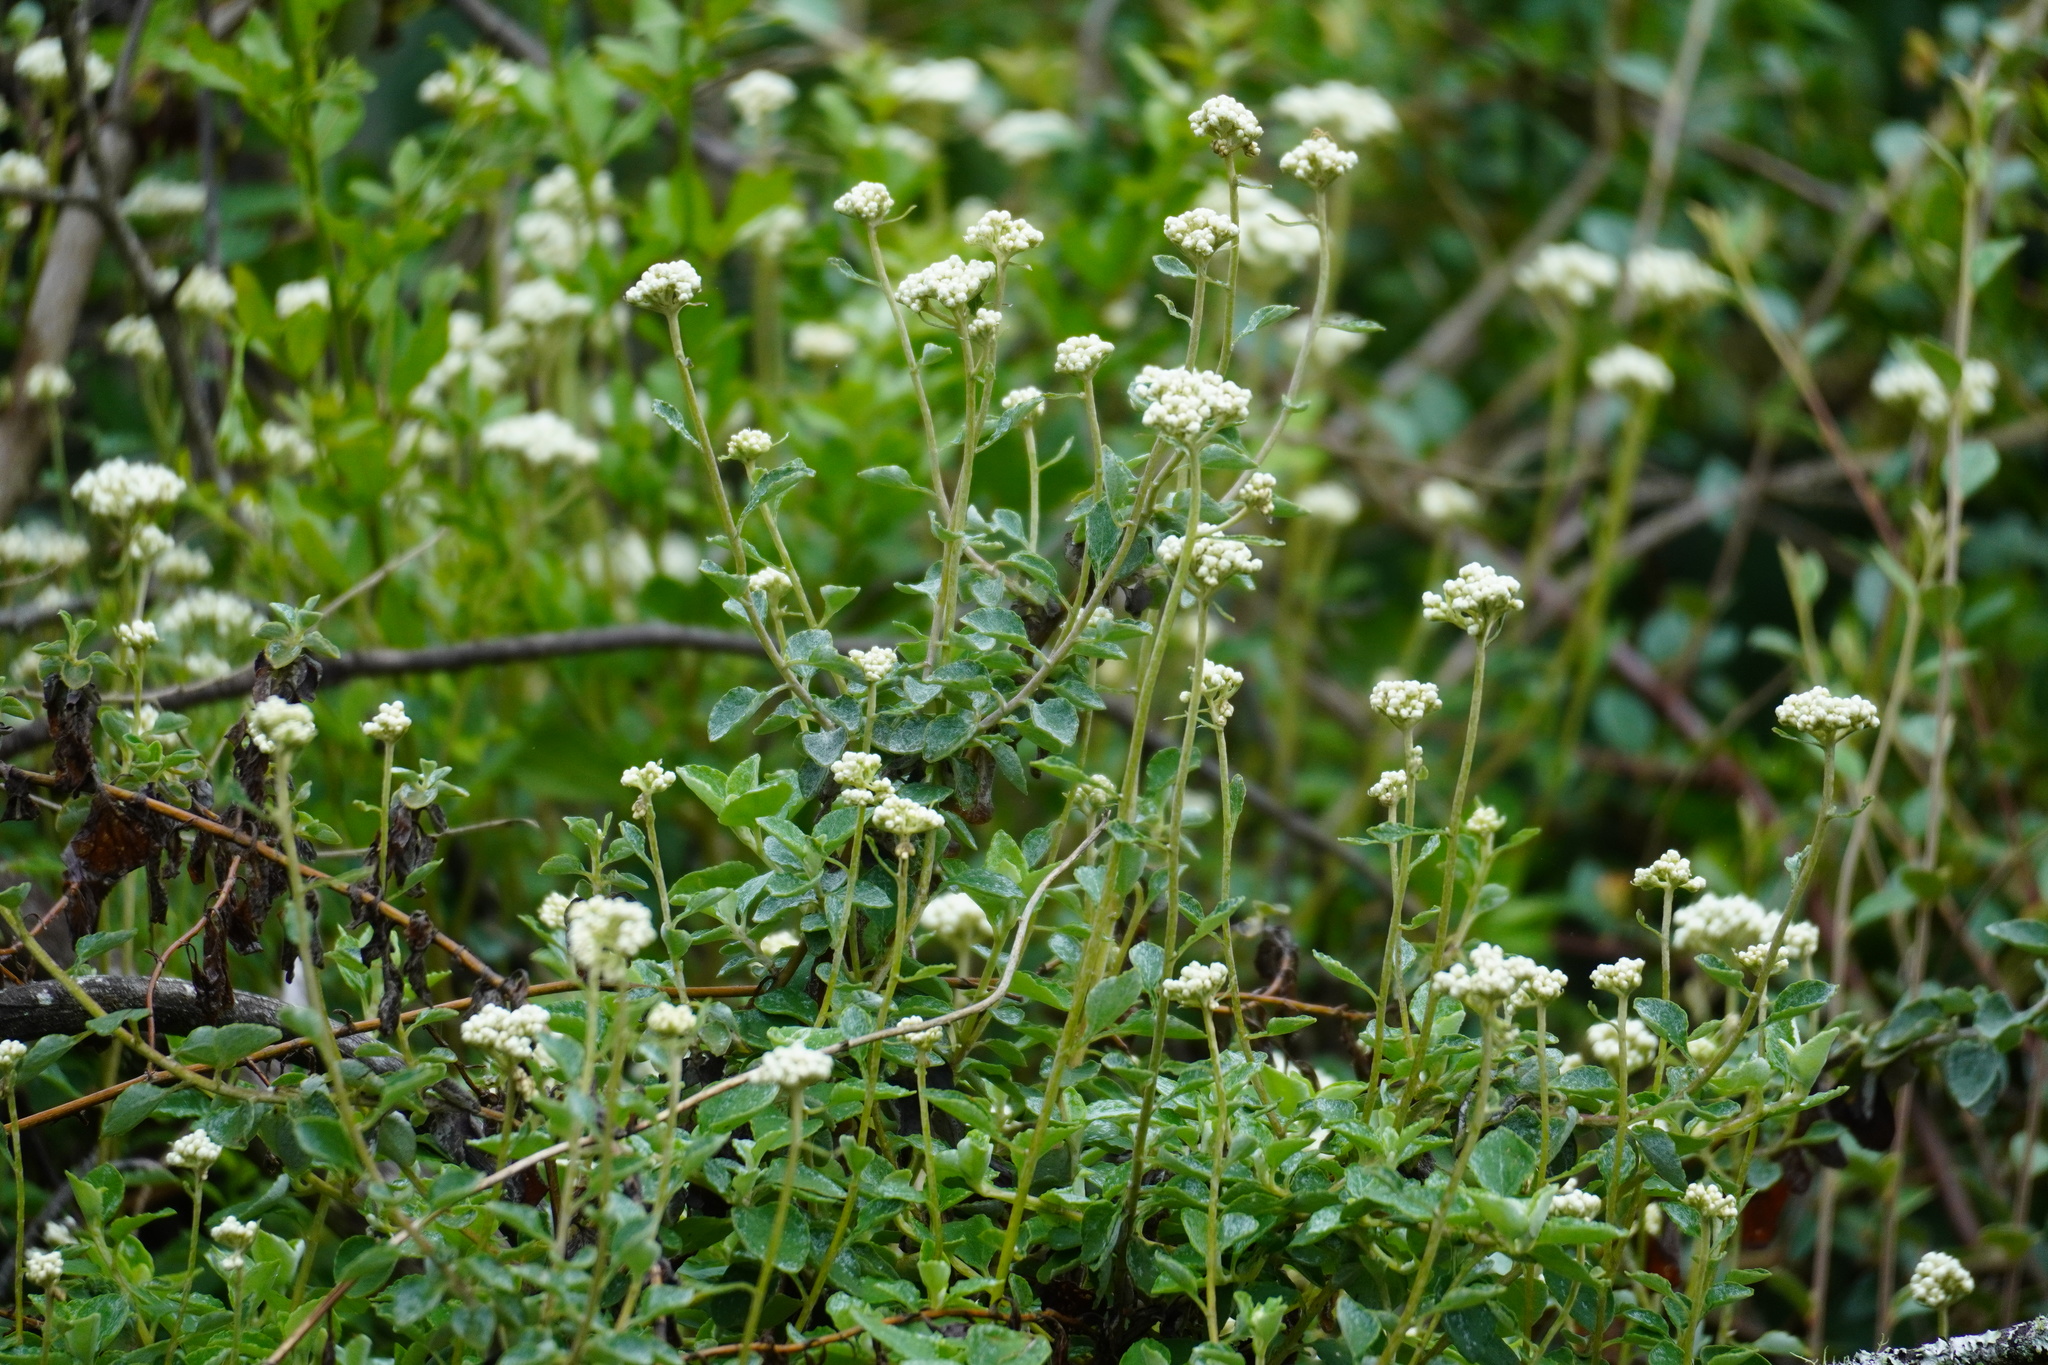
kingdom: Plantae
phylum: Tracheophyta
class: Magnoliopsida
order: Asterales
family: Asteraceae
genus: Helichrysum
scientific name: Helichrysum petiolare
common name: Licorice-plant
